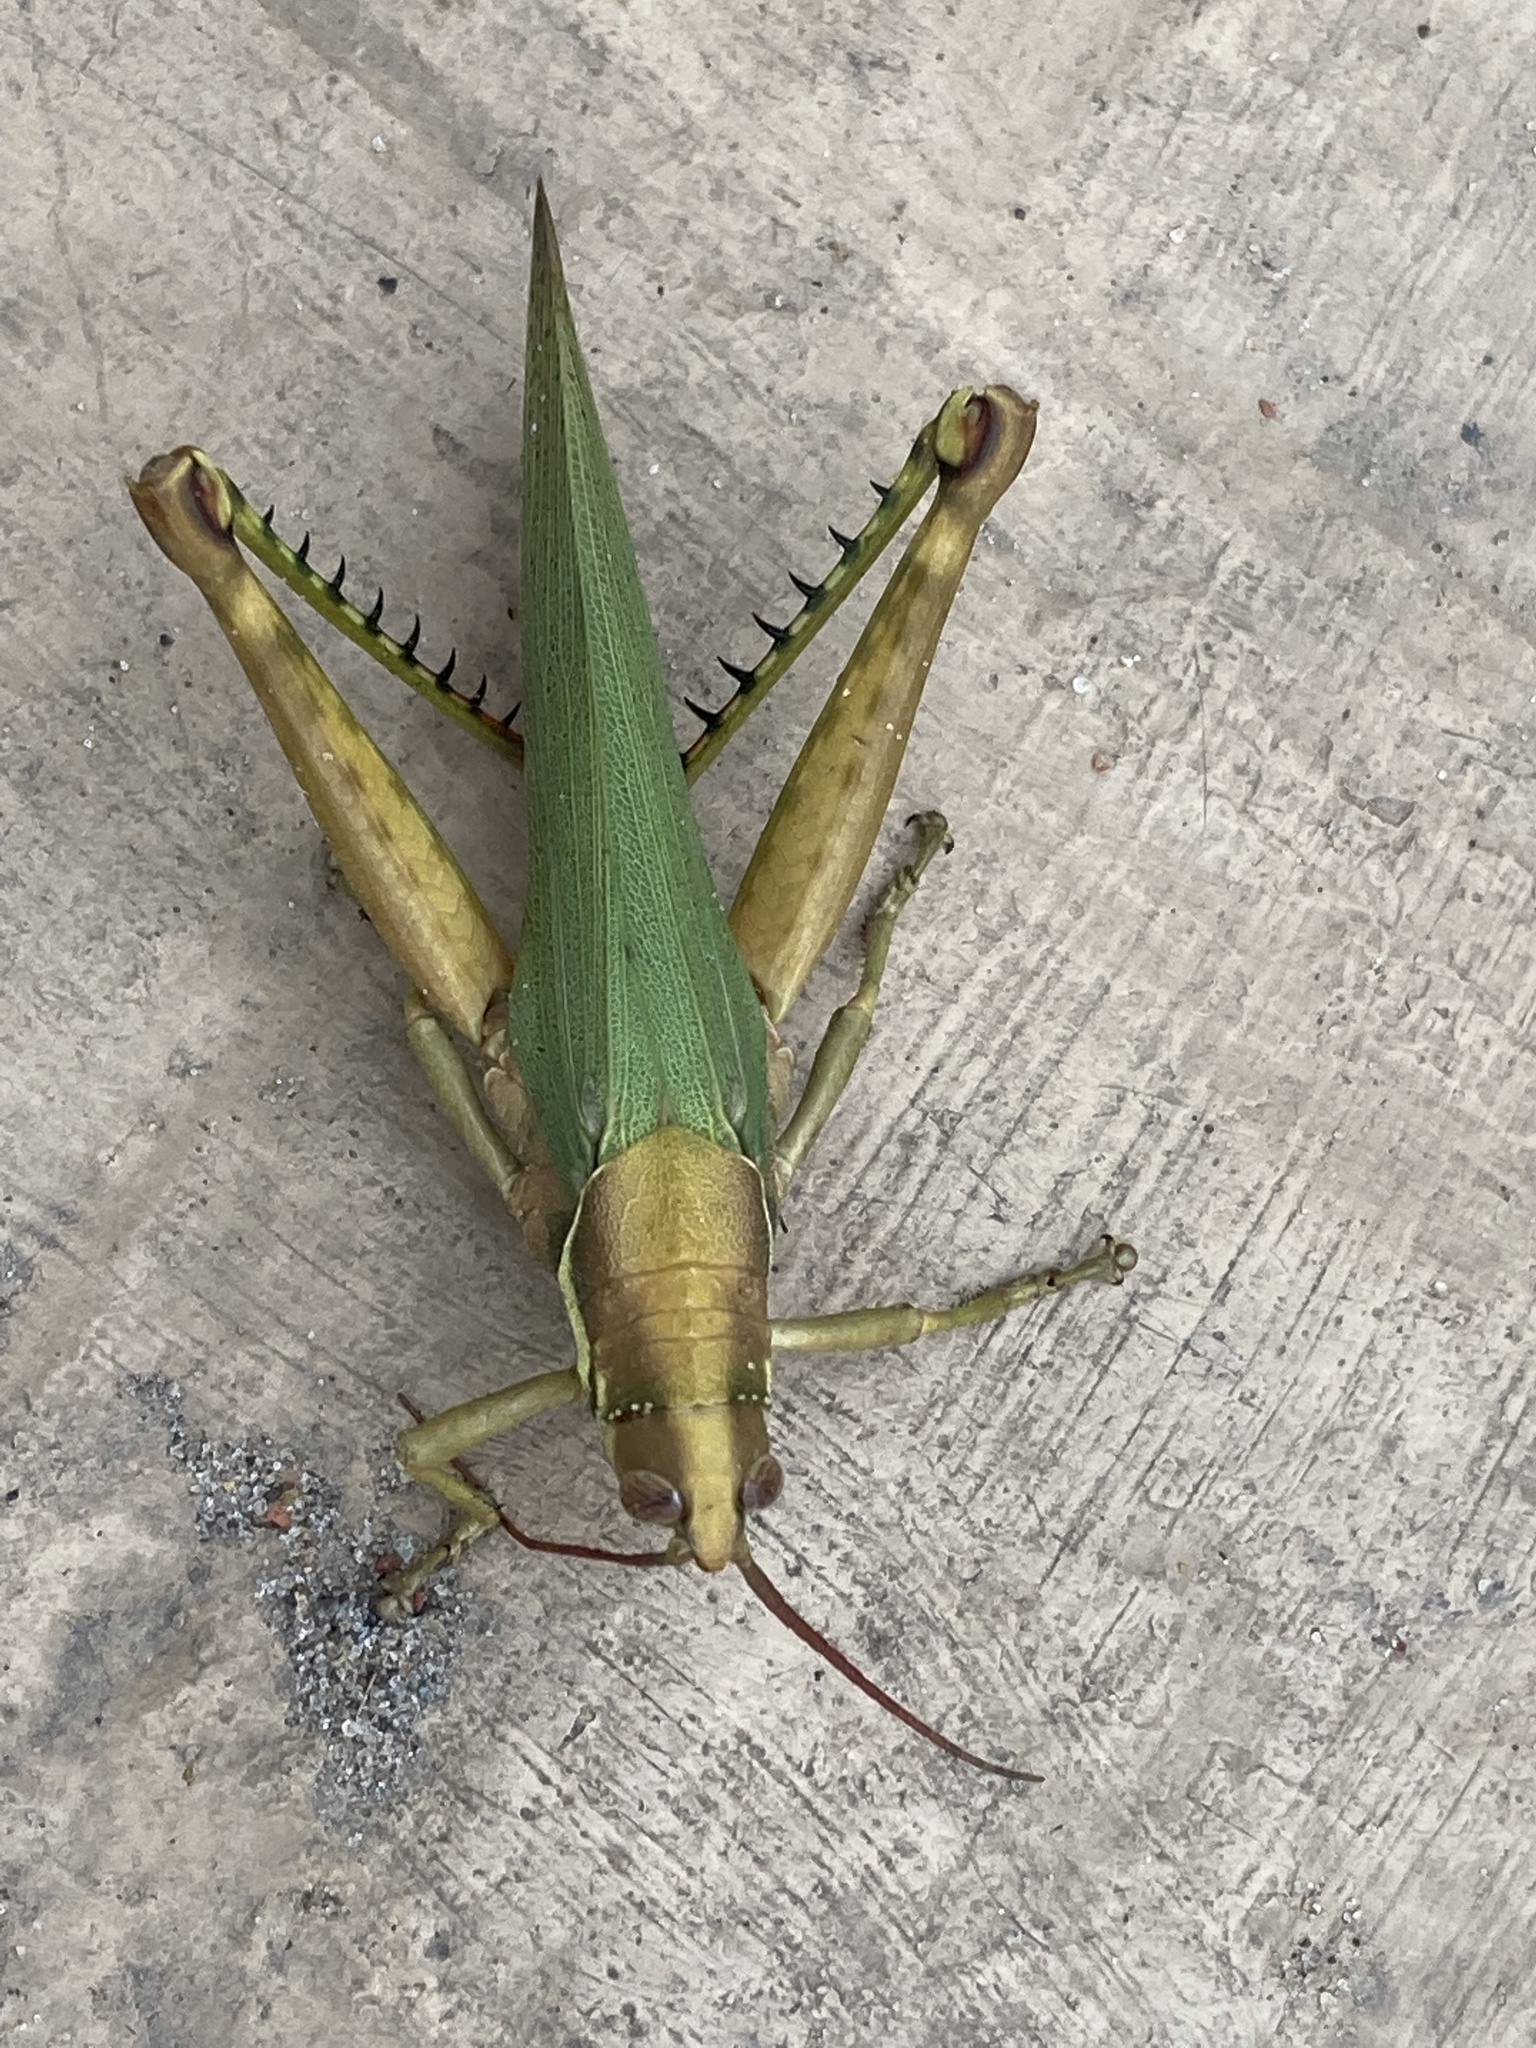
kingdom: Animalia
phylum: Arthropoda
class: Insecta
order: Orthoptera
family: Romaleidae
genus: Coryacris
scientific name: Coryacris angustipennis
